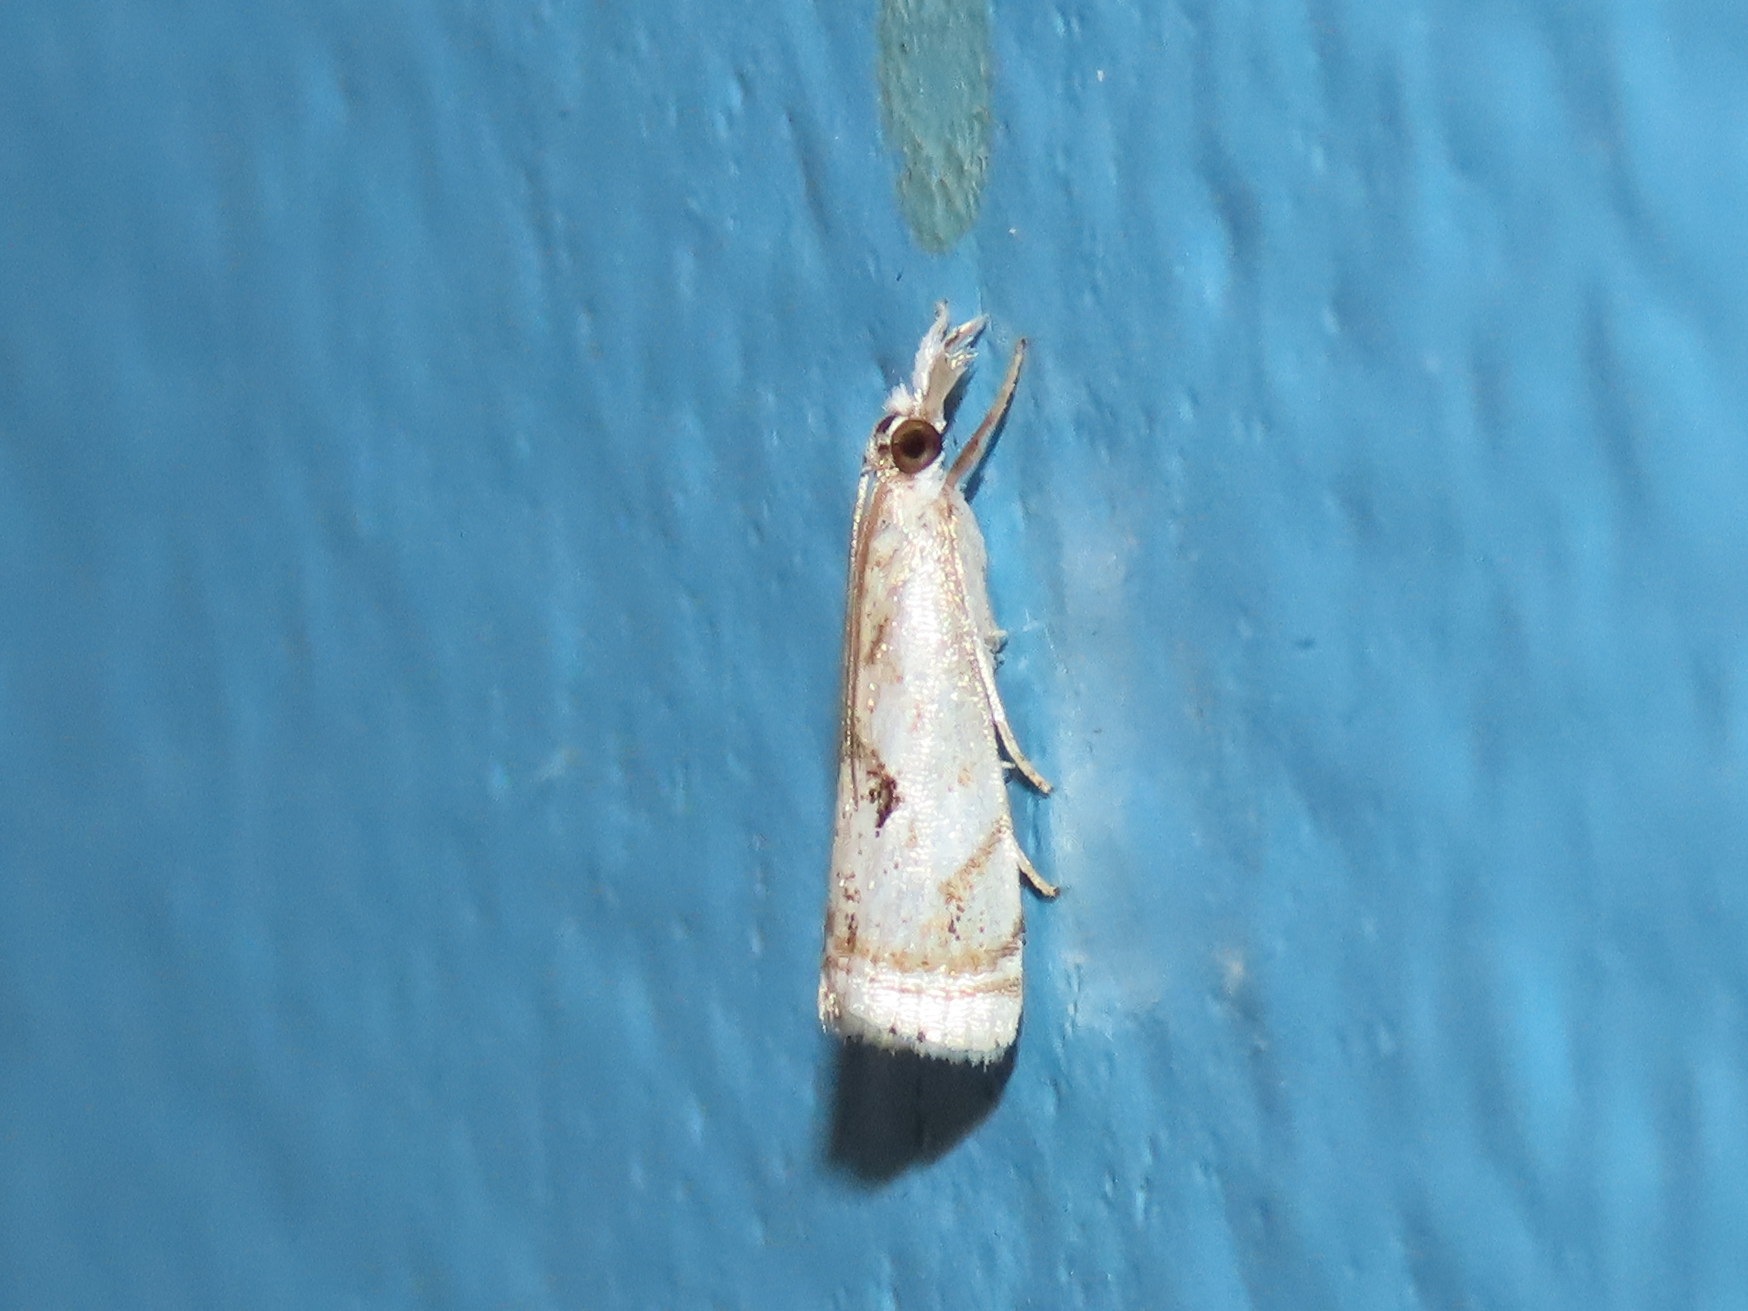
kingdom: Animalia
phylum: Arthropoda
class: Insecta
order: Lepidoptera
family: Crambidae
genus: Microcrambus
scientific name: Microcrambus elegans
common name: Elegant grass-veneer
